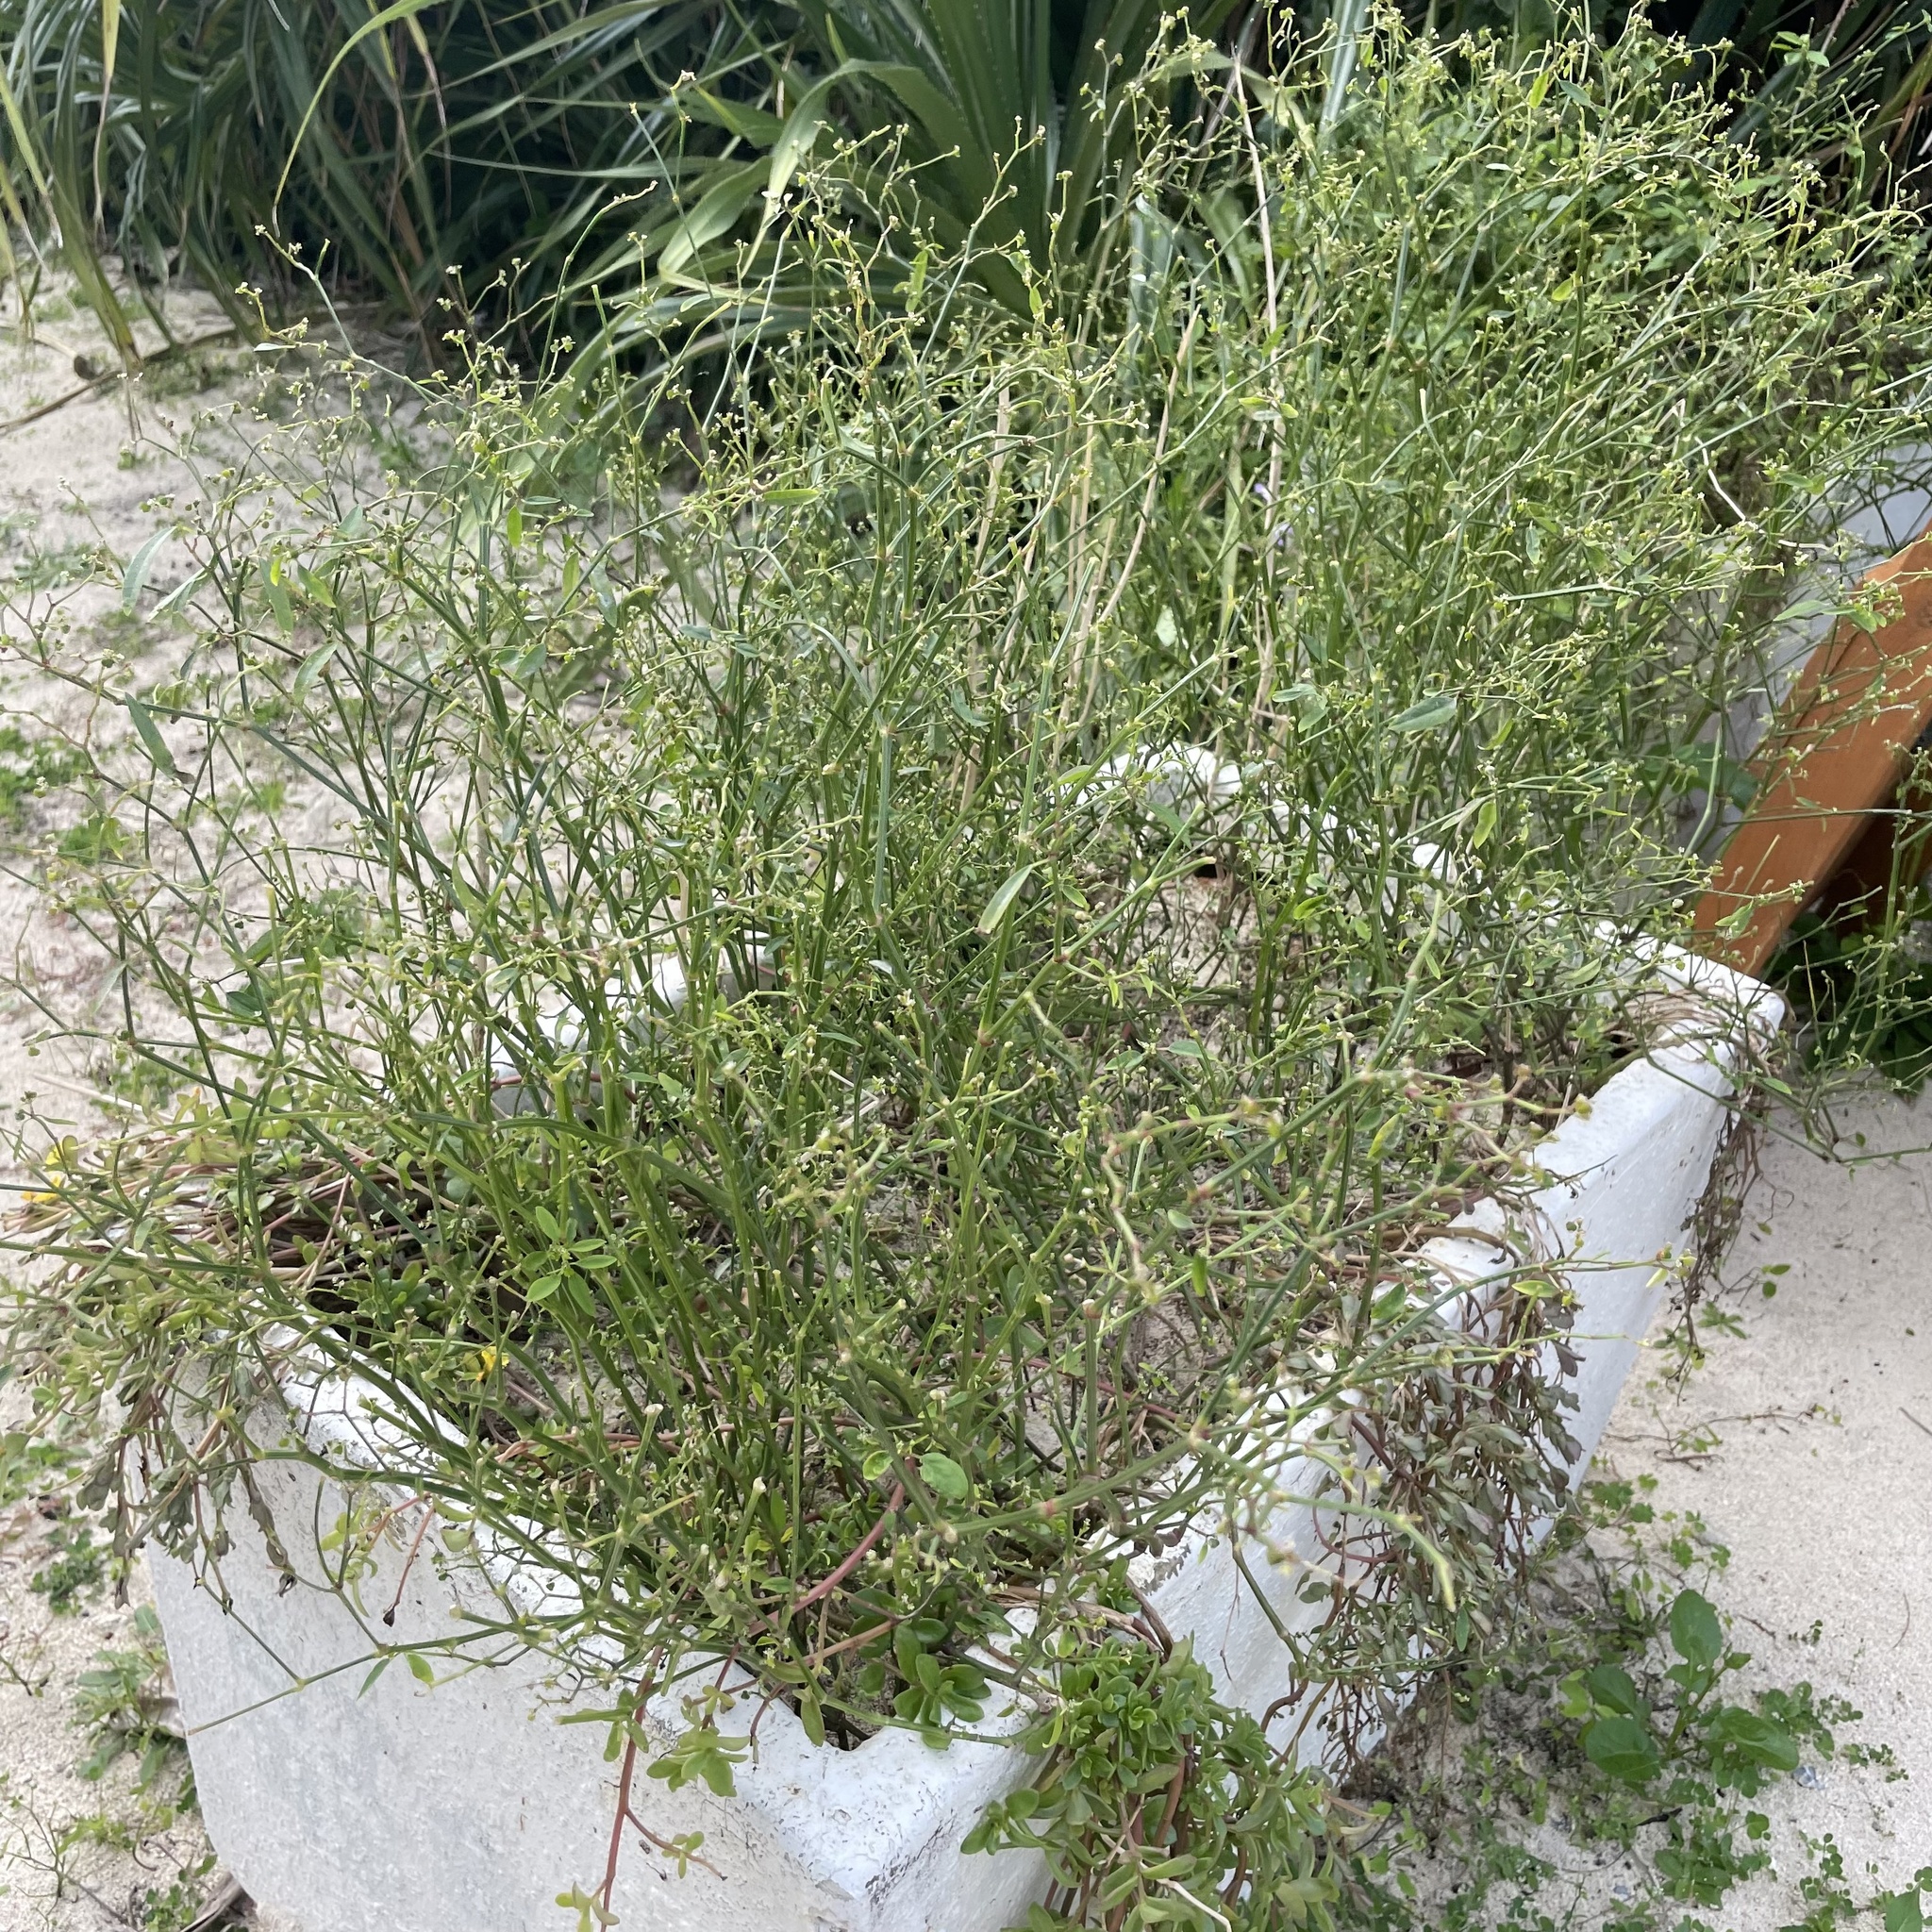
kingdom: Plantae
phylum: Tracheophyta
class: Magnoliopsida
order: Malpighiales
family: Euphorbiaceae
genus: Euphorbia
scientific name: Euphorbia graminea
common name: Grassleaf spurge
